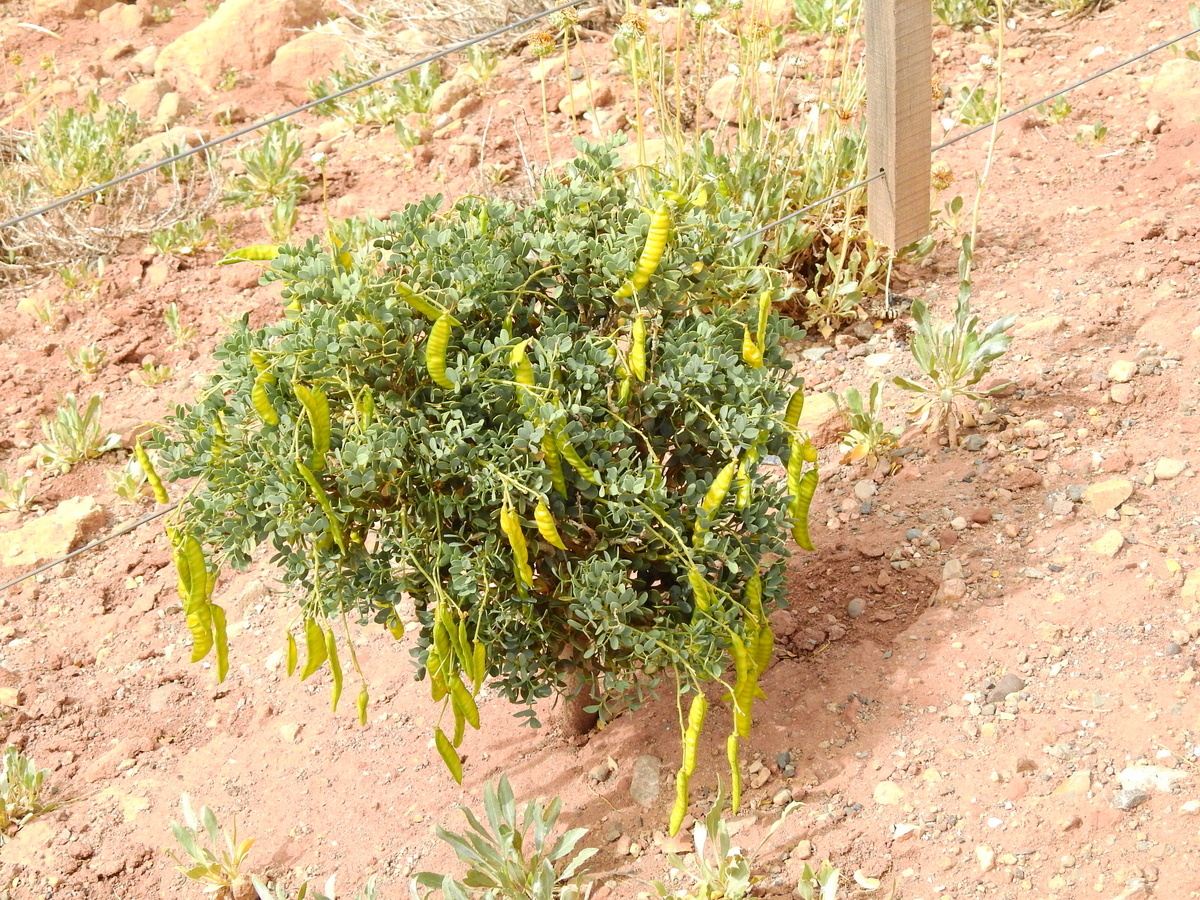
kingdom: Plantae
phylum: Tracheophyta
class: Magnoliopsida
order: Fabales
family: Fabaceae
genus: Senna
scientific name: Senna arnottiana
